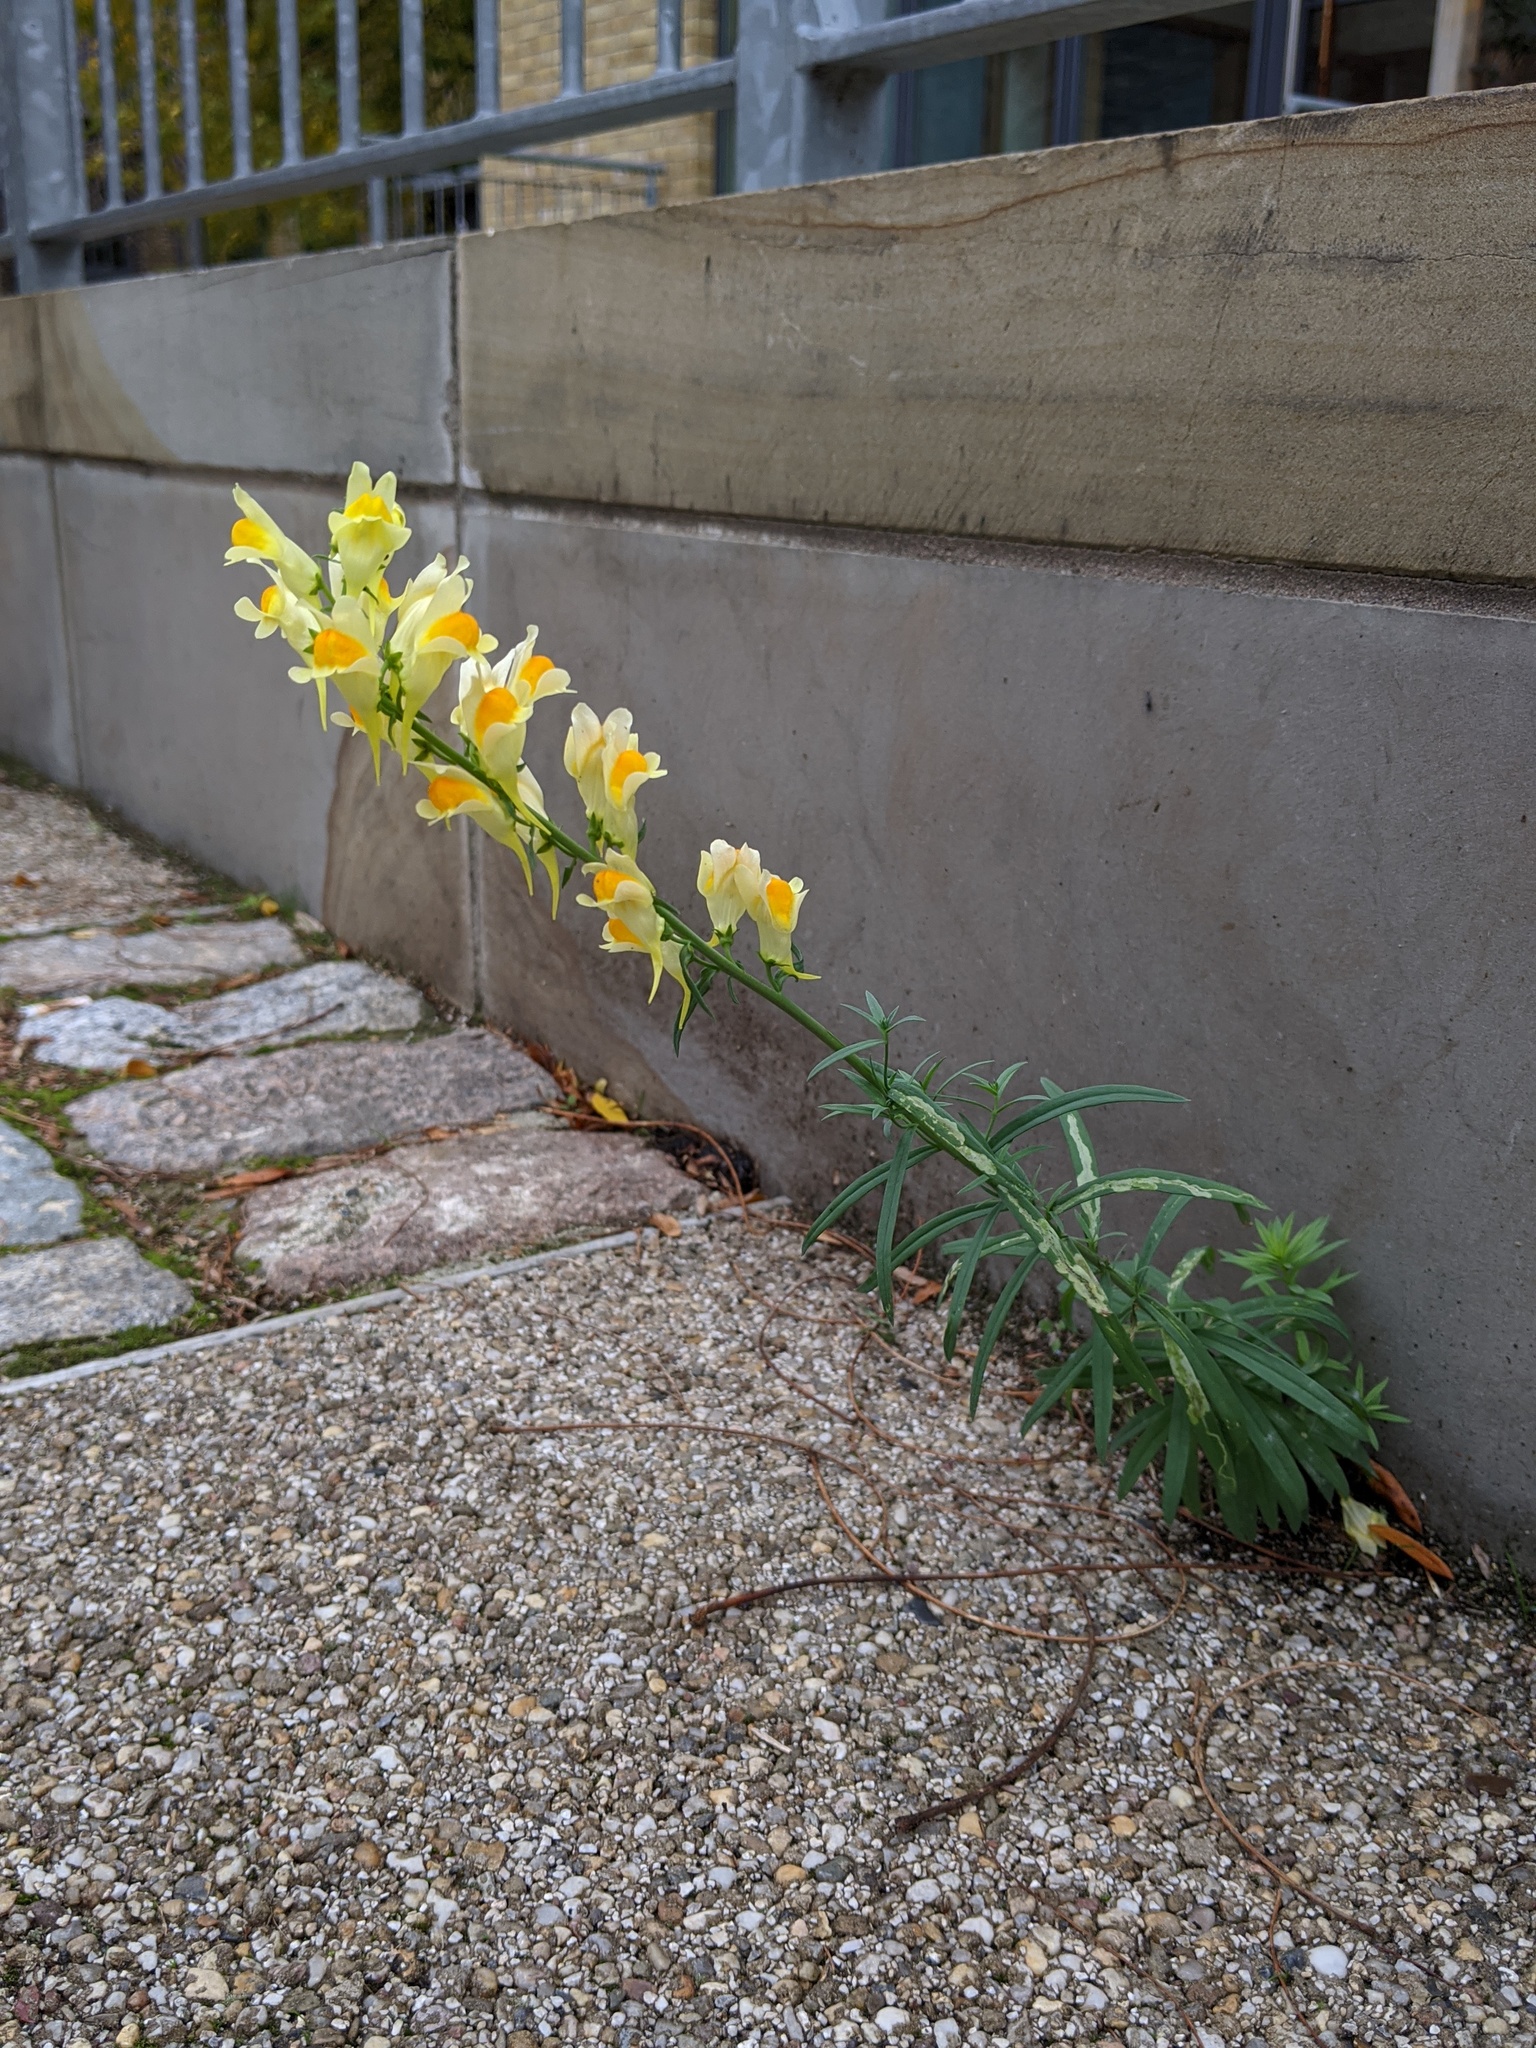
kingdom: Plantae
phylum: Tracheophyta
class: Magnoliopsida
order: Lamiales
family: Plantaginaceae
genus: Linaria
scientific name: Linaria vulgaris
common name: Butter and eggs
